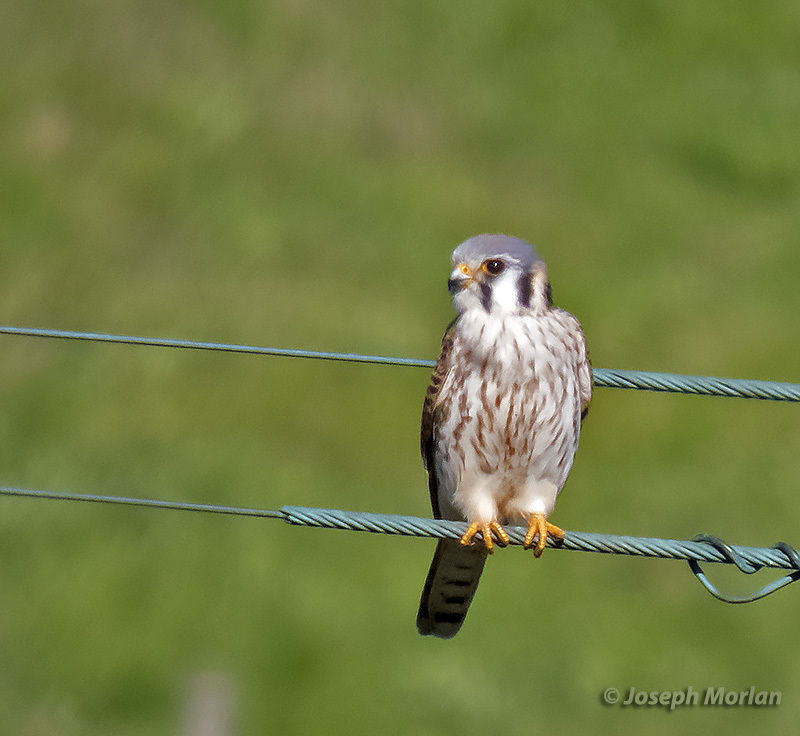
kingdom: Animalia
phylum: Chordata
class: Aves
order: Falconiformes
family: Falconidae
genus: Falco
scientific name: Falco sparverius
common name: American kestrel
